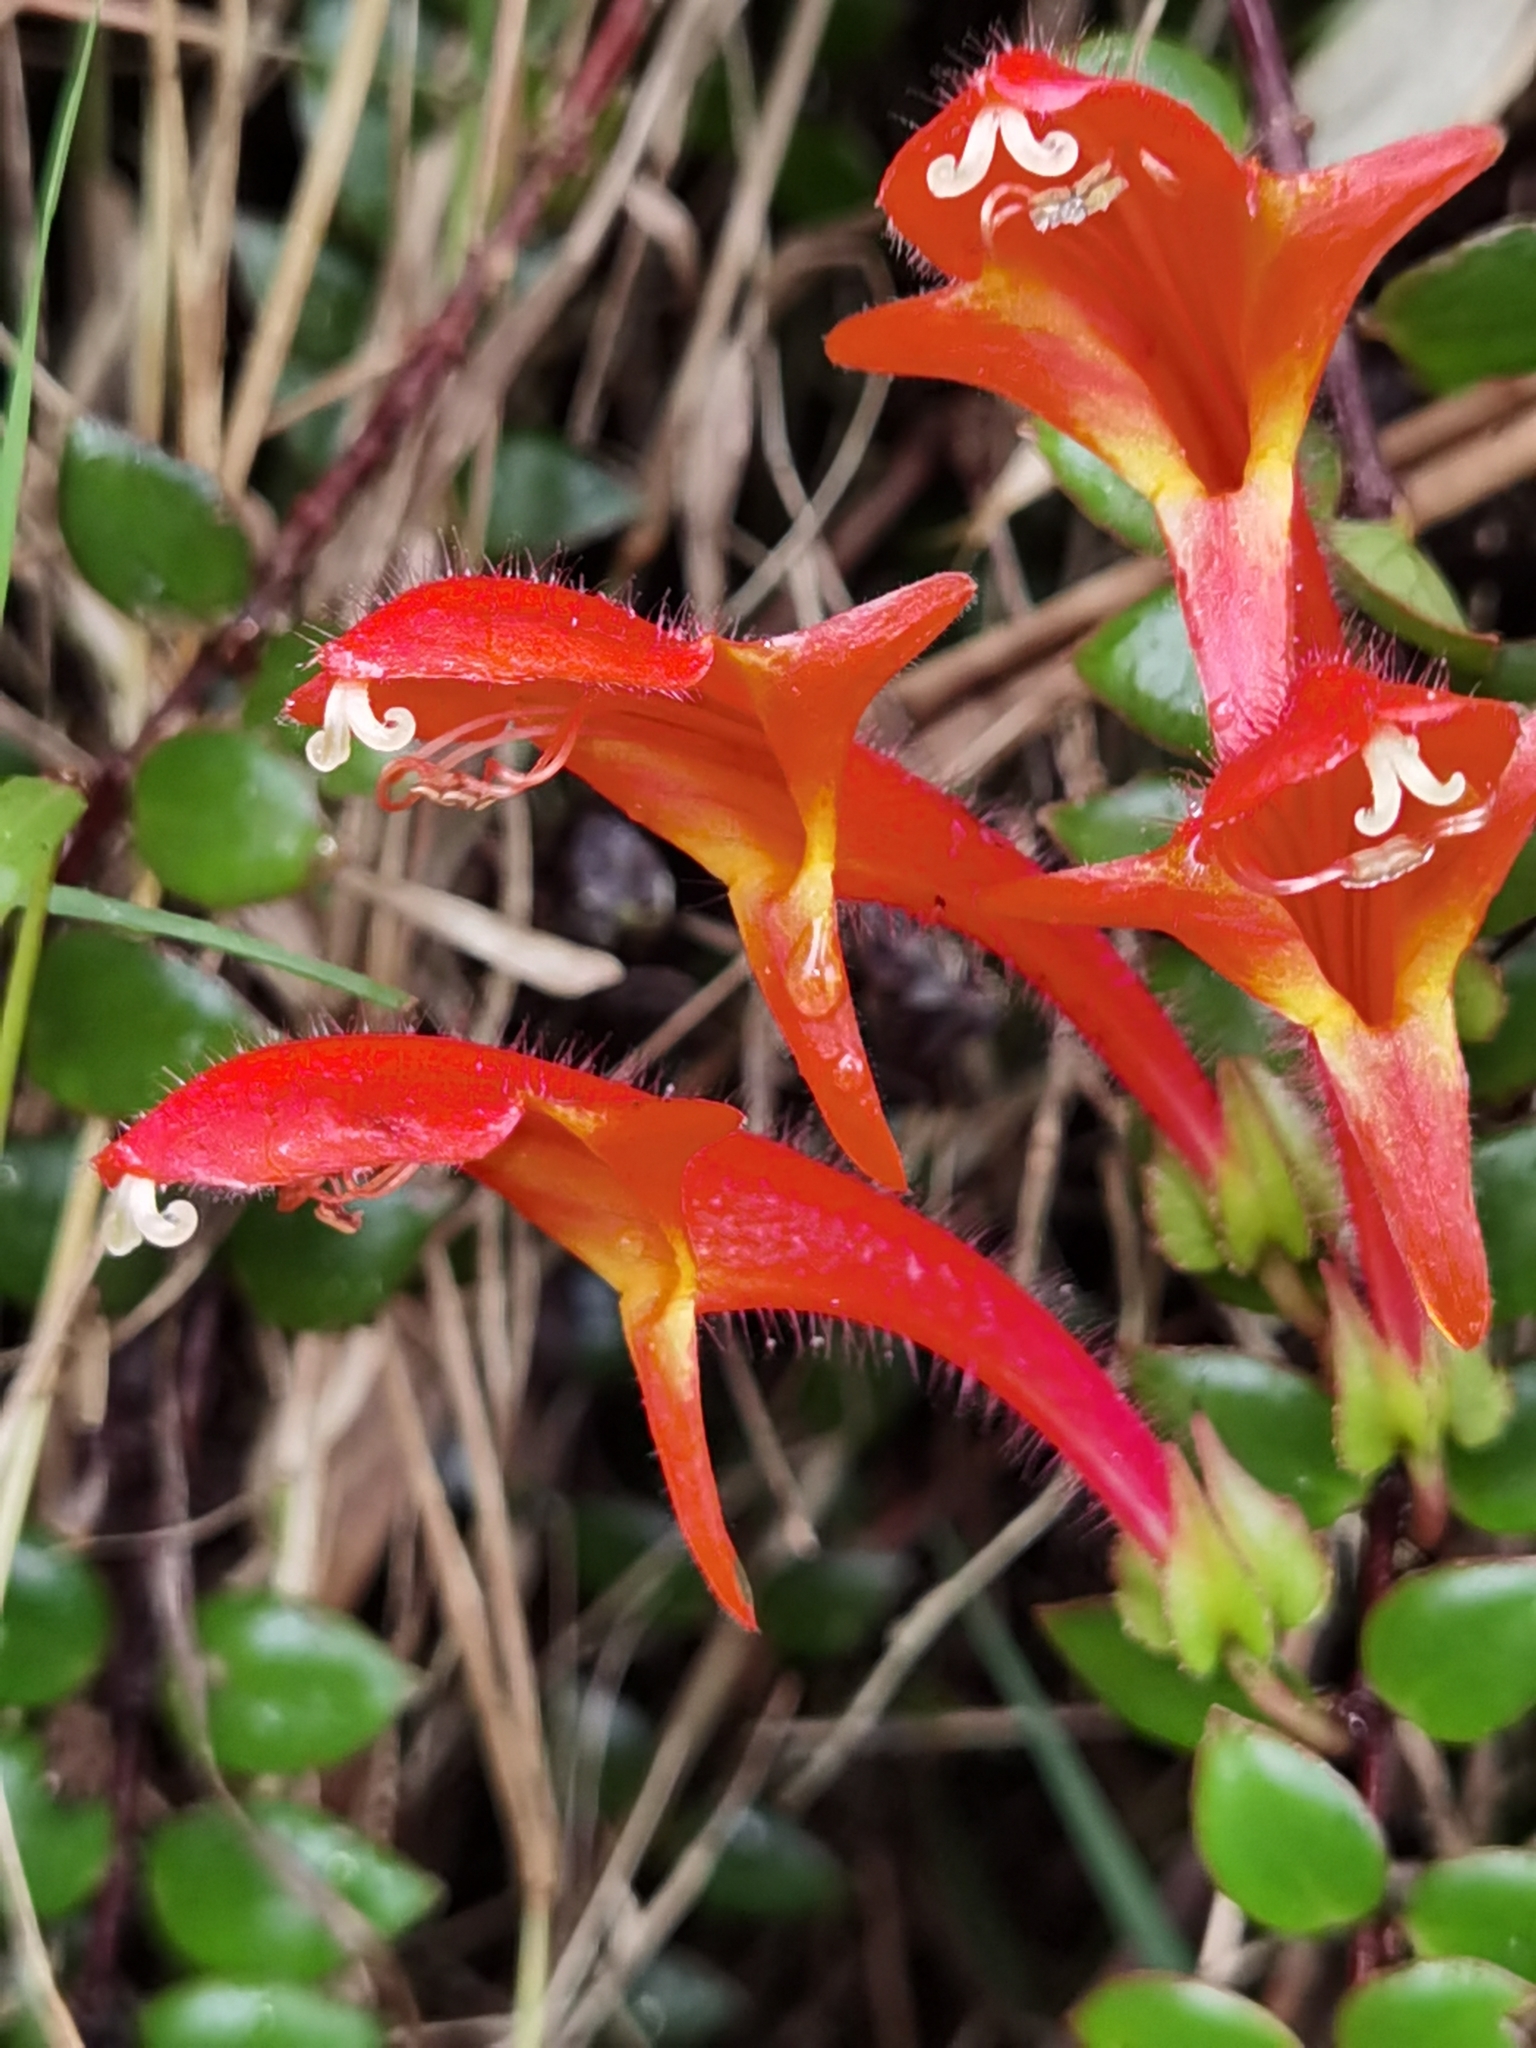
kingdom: Plantae
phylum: Tracheophyta
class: Magnoliopsida
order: Lamiales
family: Gesneriaceae
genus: Columnea
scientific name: Columnea oerstediana
